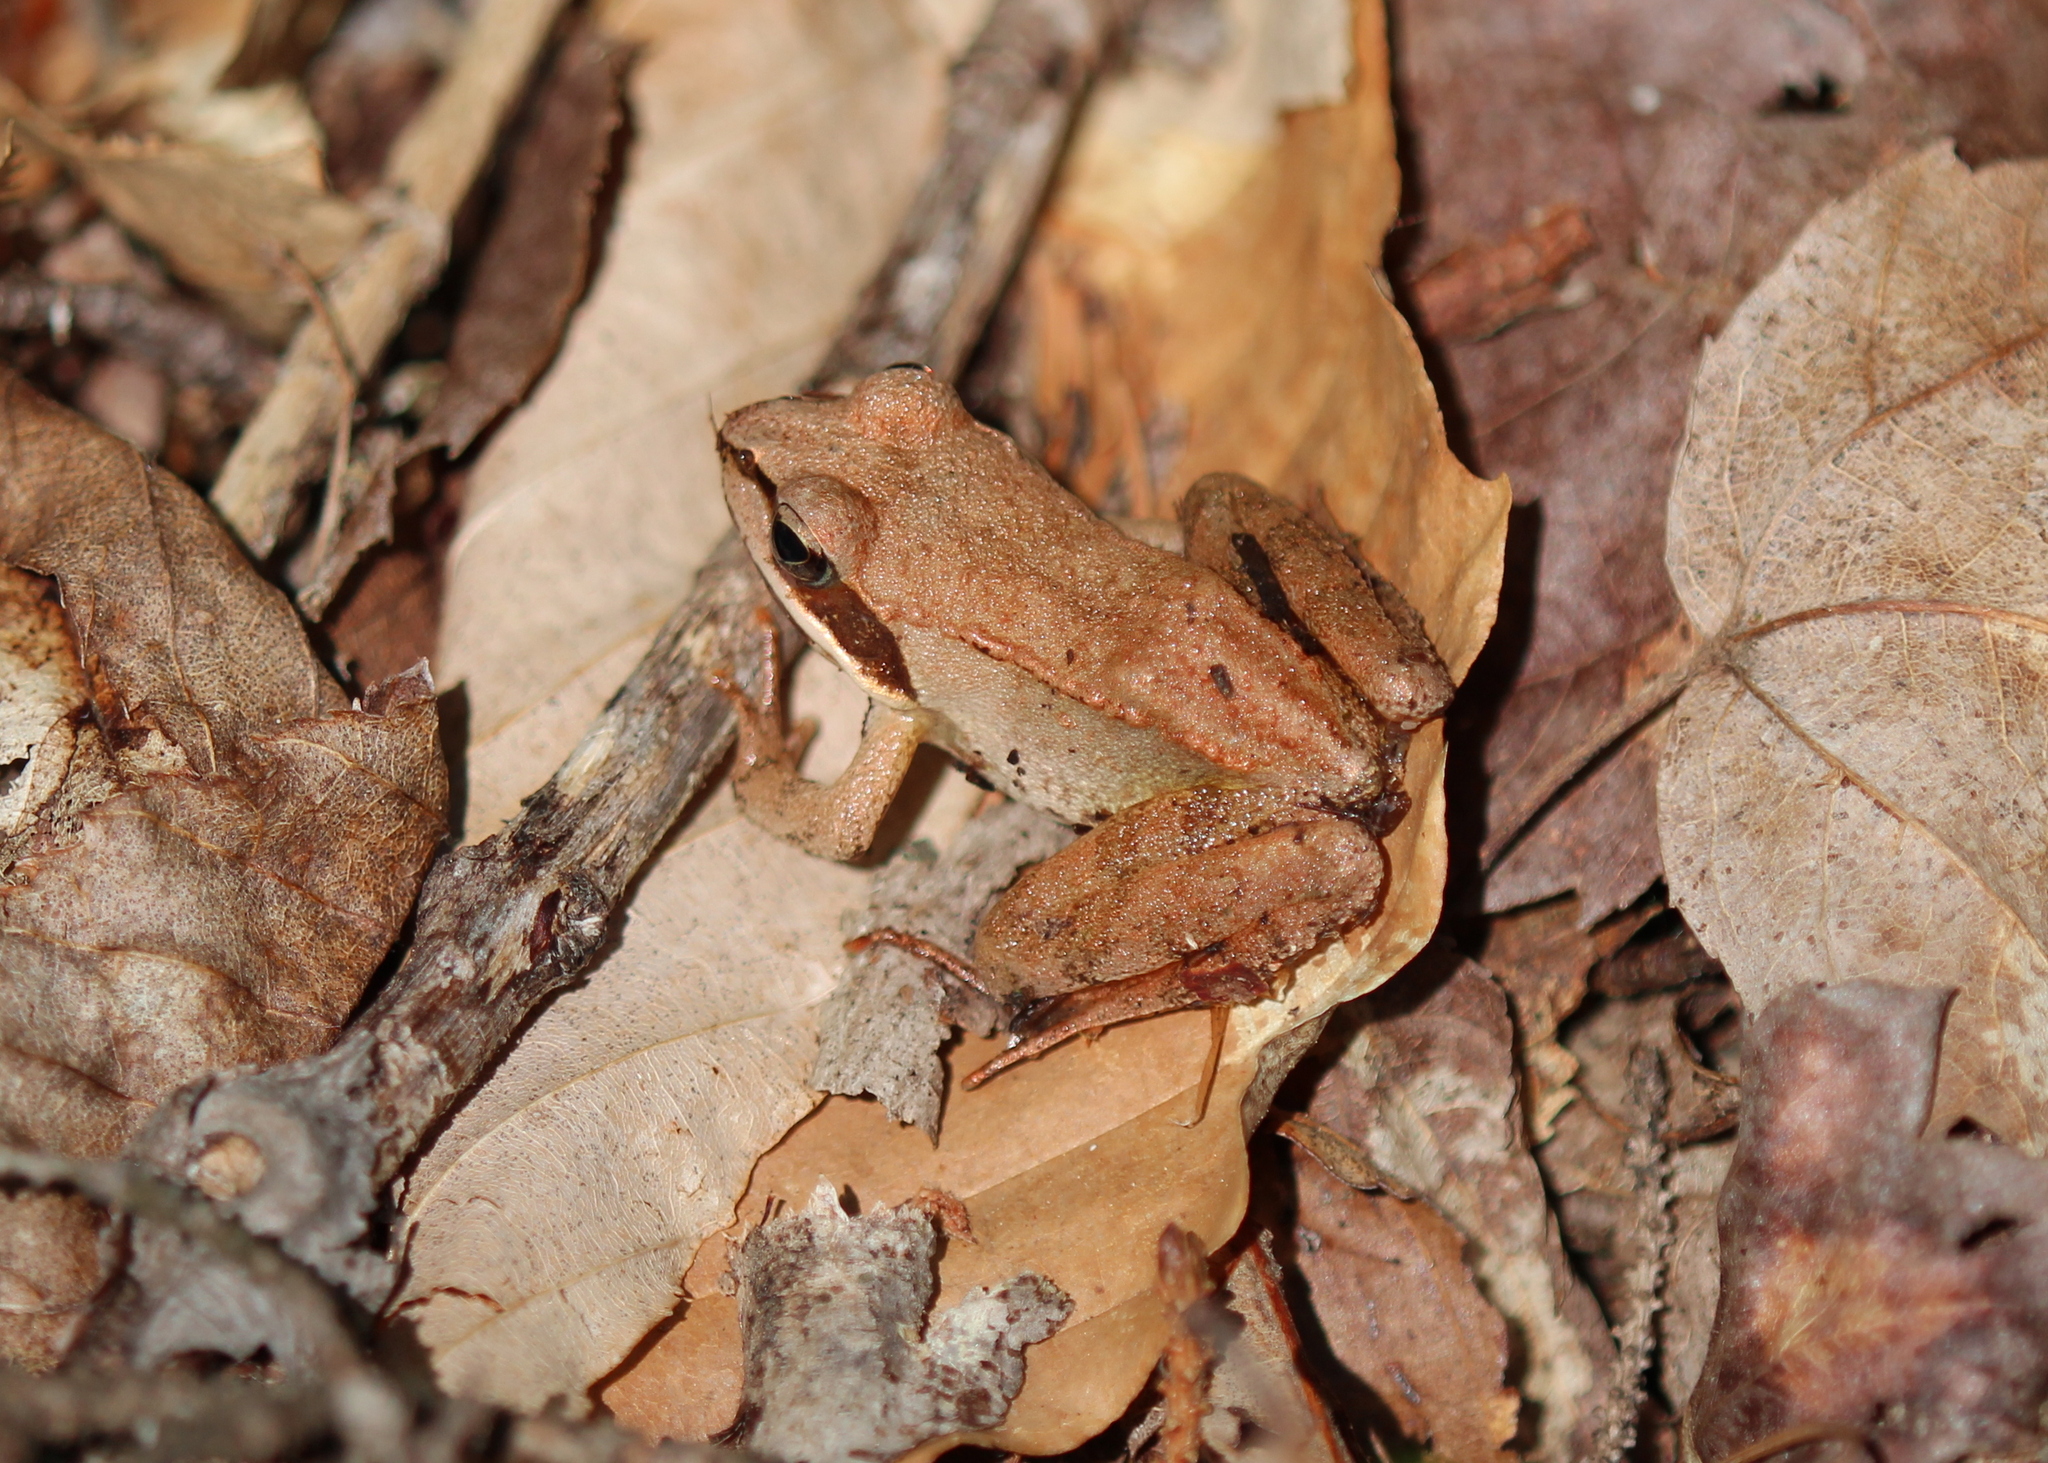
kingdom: Animalia
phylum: Chordata
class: Amphibia
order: Anura
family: Ranidae
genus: Lithobates
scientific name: Lithobates sylvaticus
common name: Wood frog
